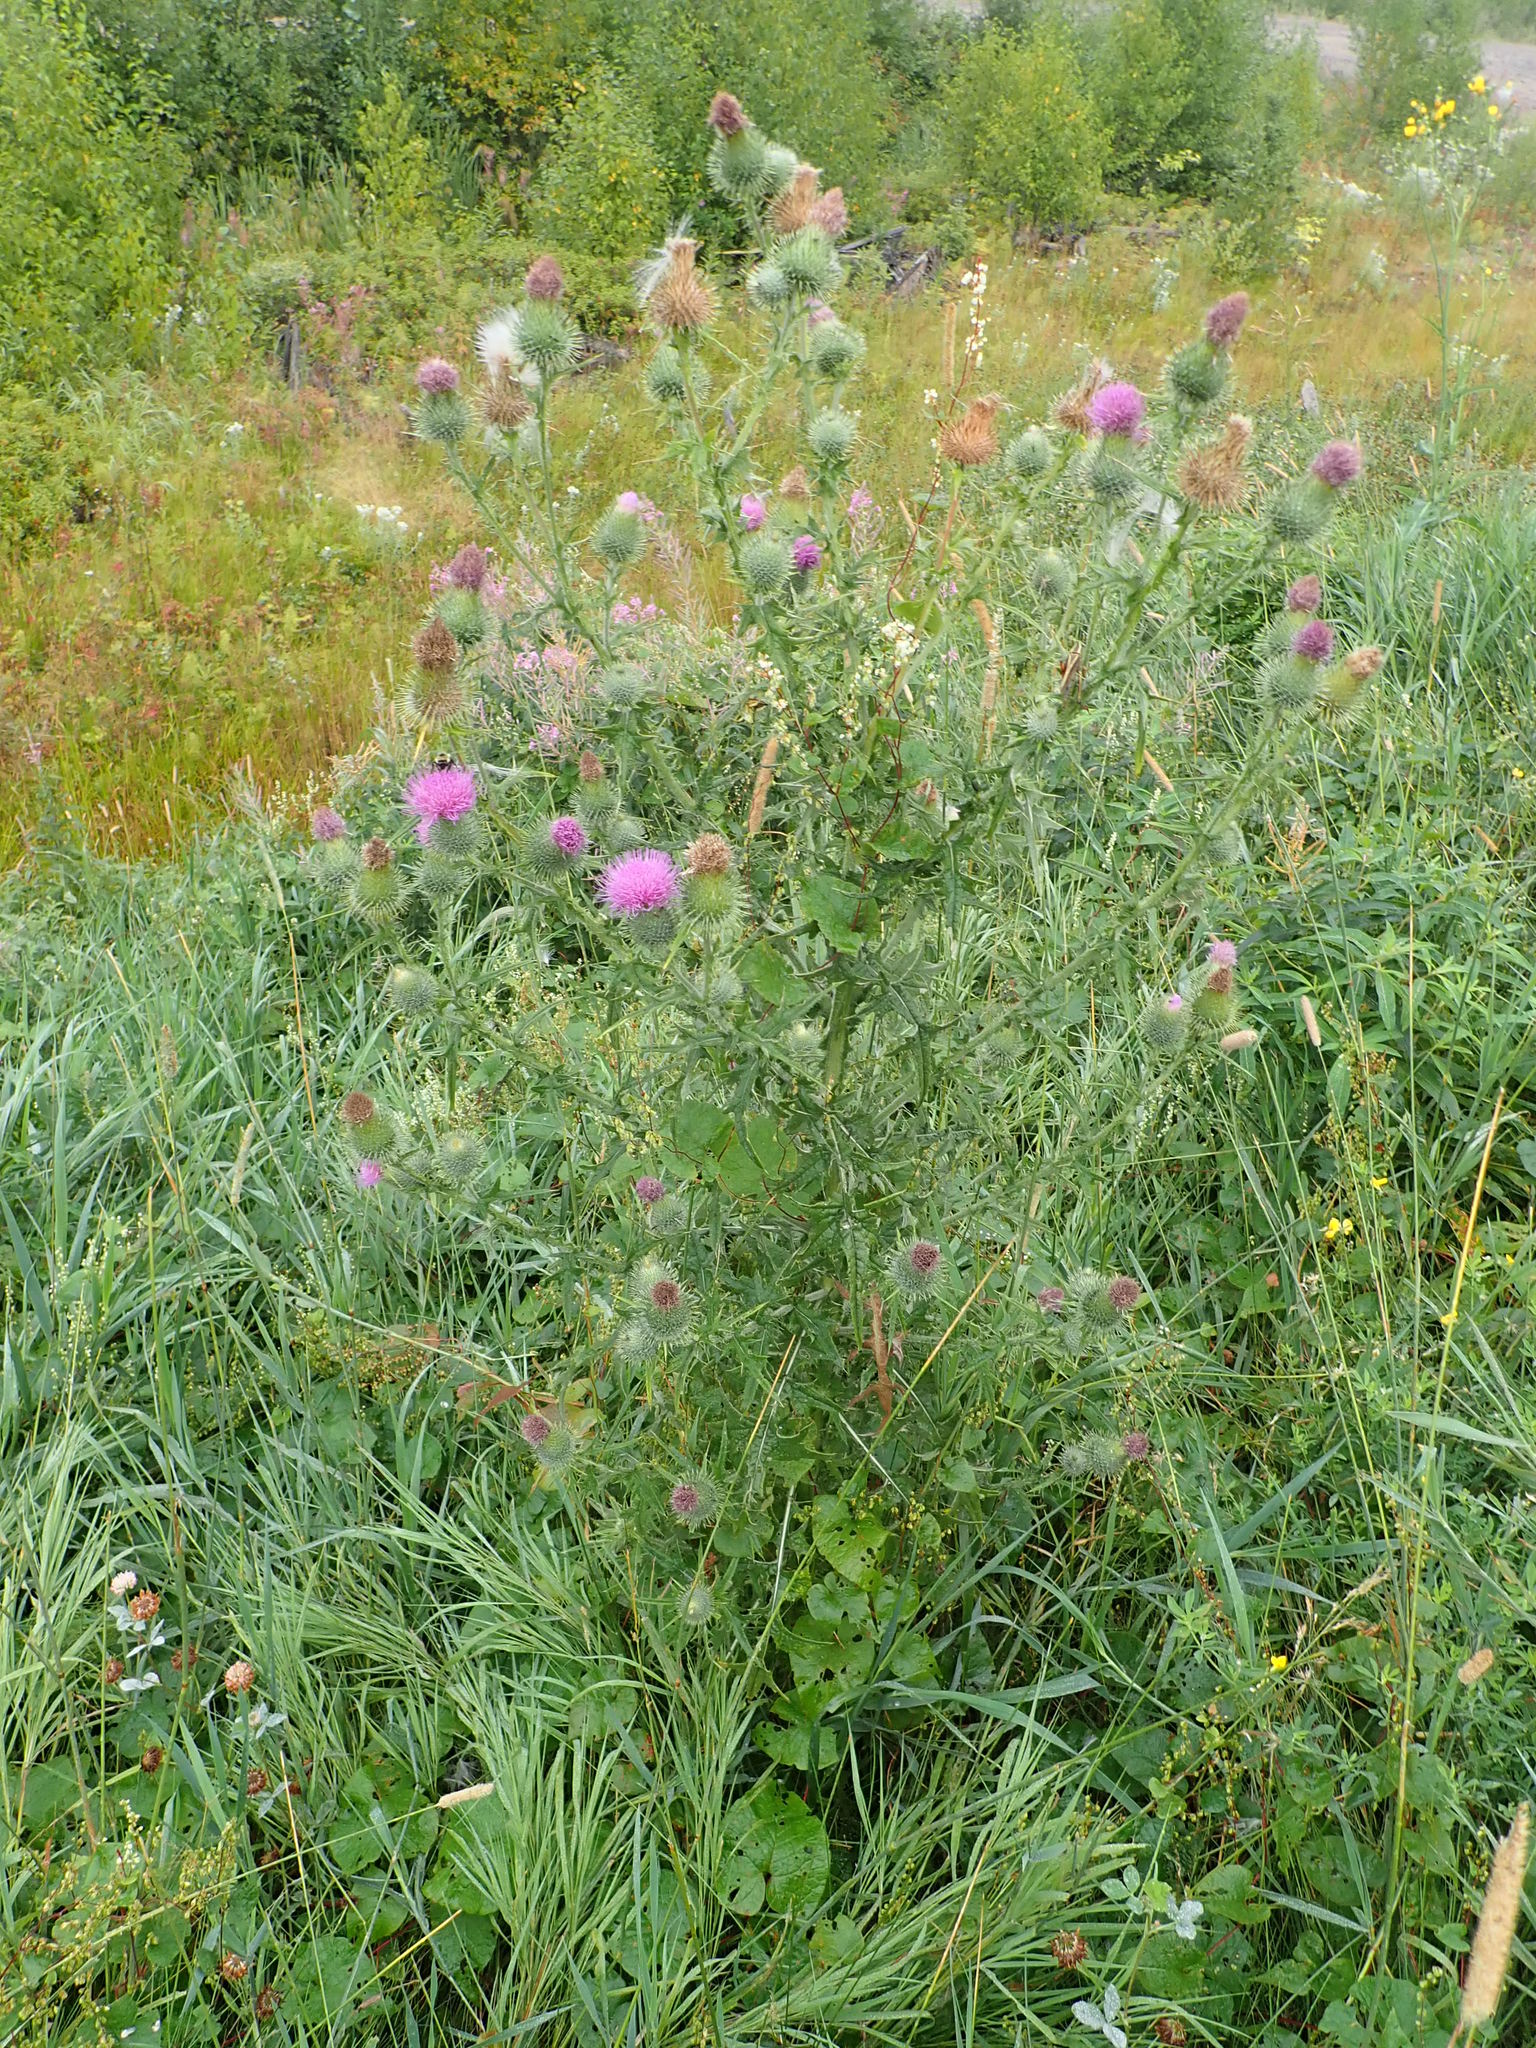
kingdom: Plantae
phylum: Tracheophyta
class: Magnoliopsida
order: Asterales
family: Asteraceae
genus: Cirsium
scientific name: Cirsium vulgare
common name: Bull thistle
